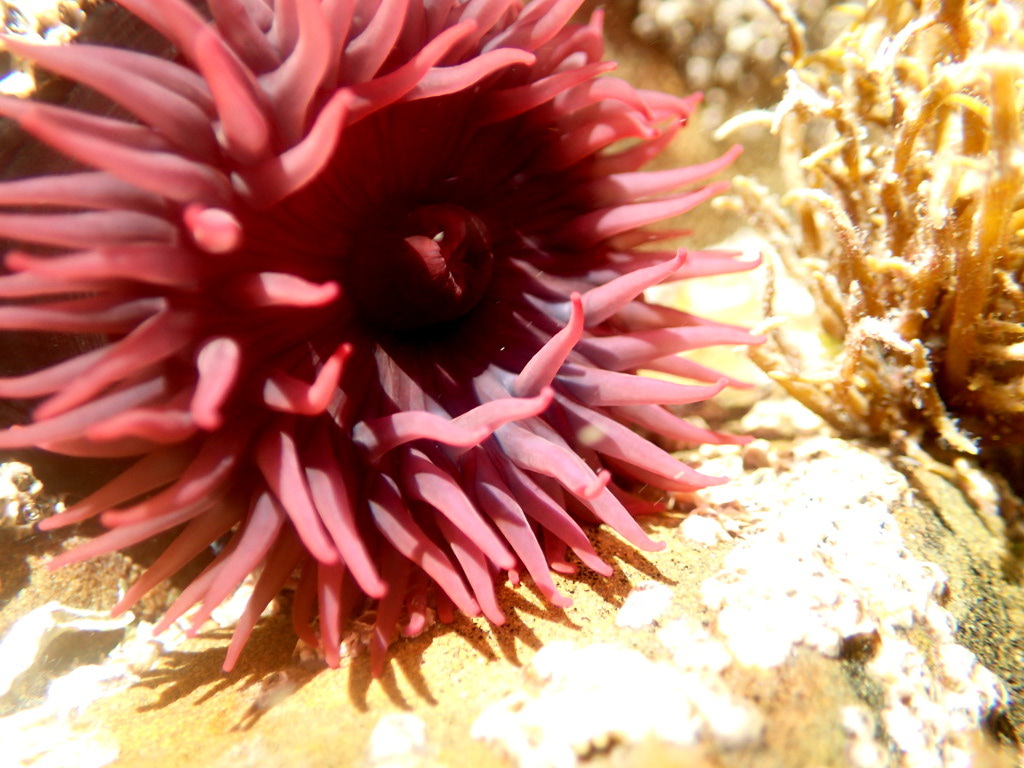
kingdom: Animalia
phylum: Cnidaria
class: Anthozoa
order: Actiniaria
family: Actiniidae
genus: Actinia
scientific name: Actinia tenebrosa
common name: Waratah anemone
